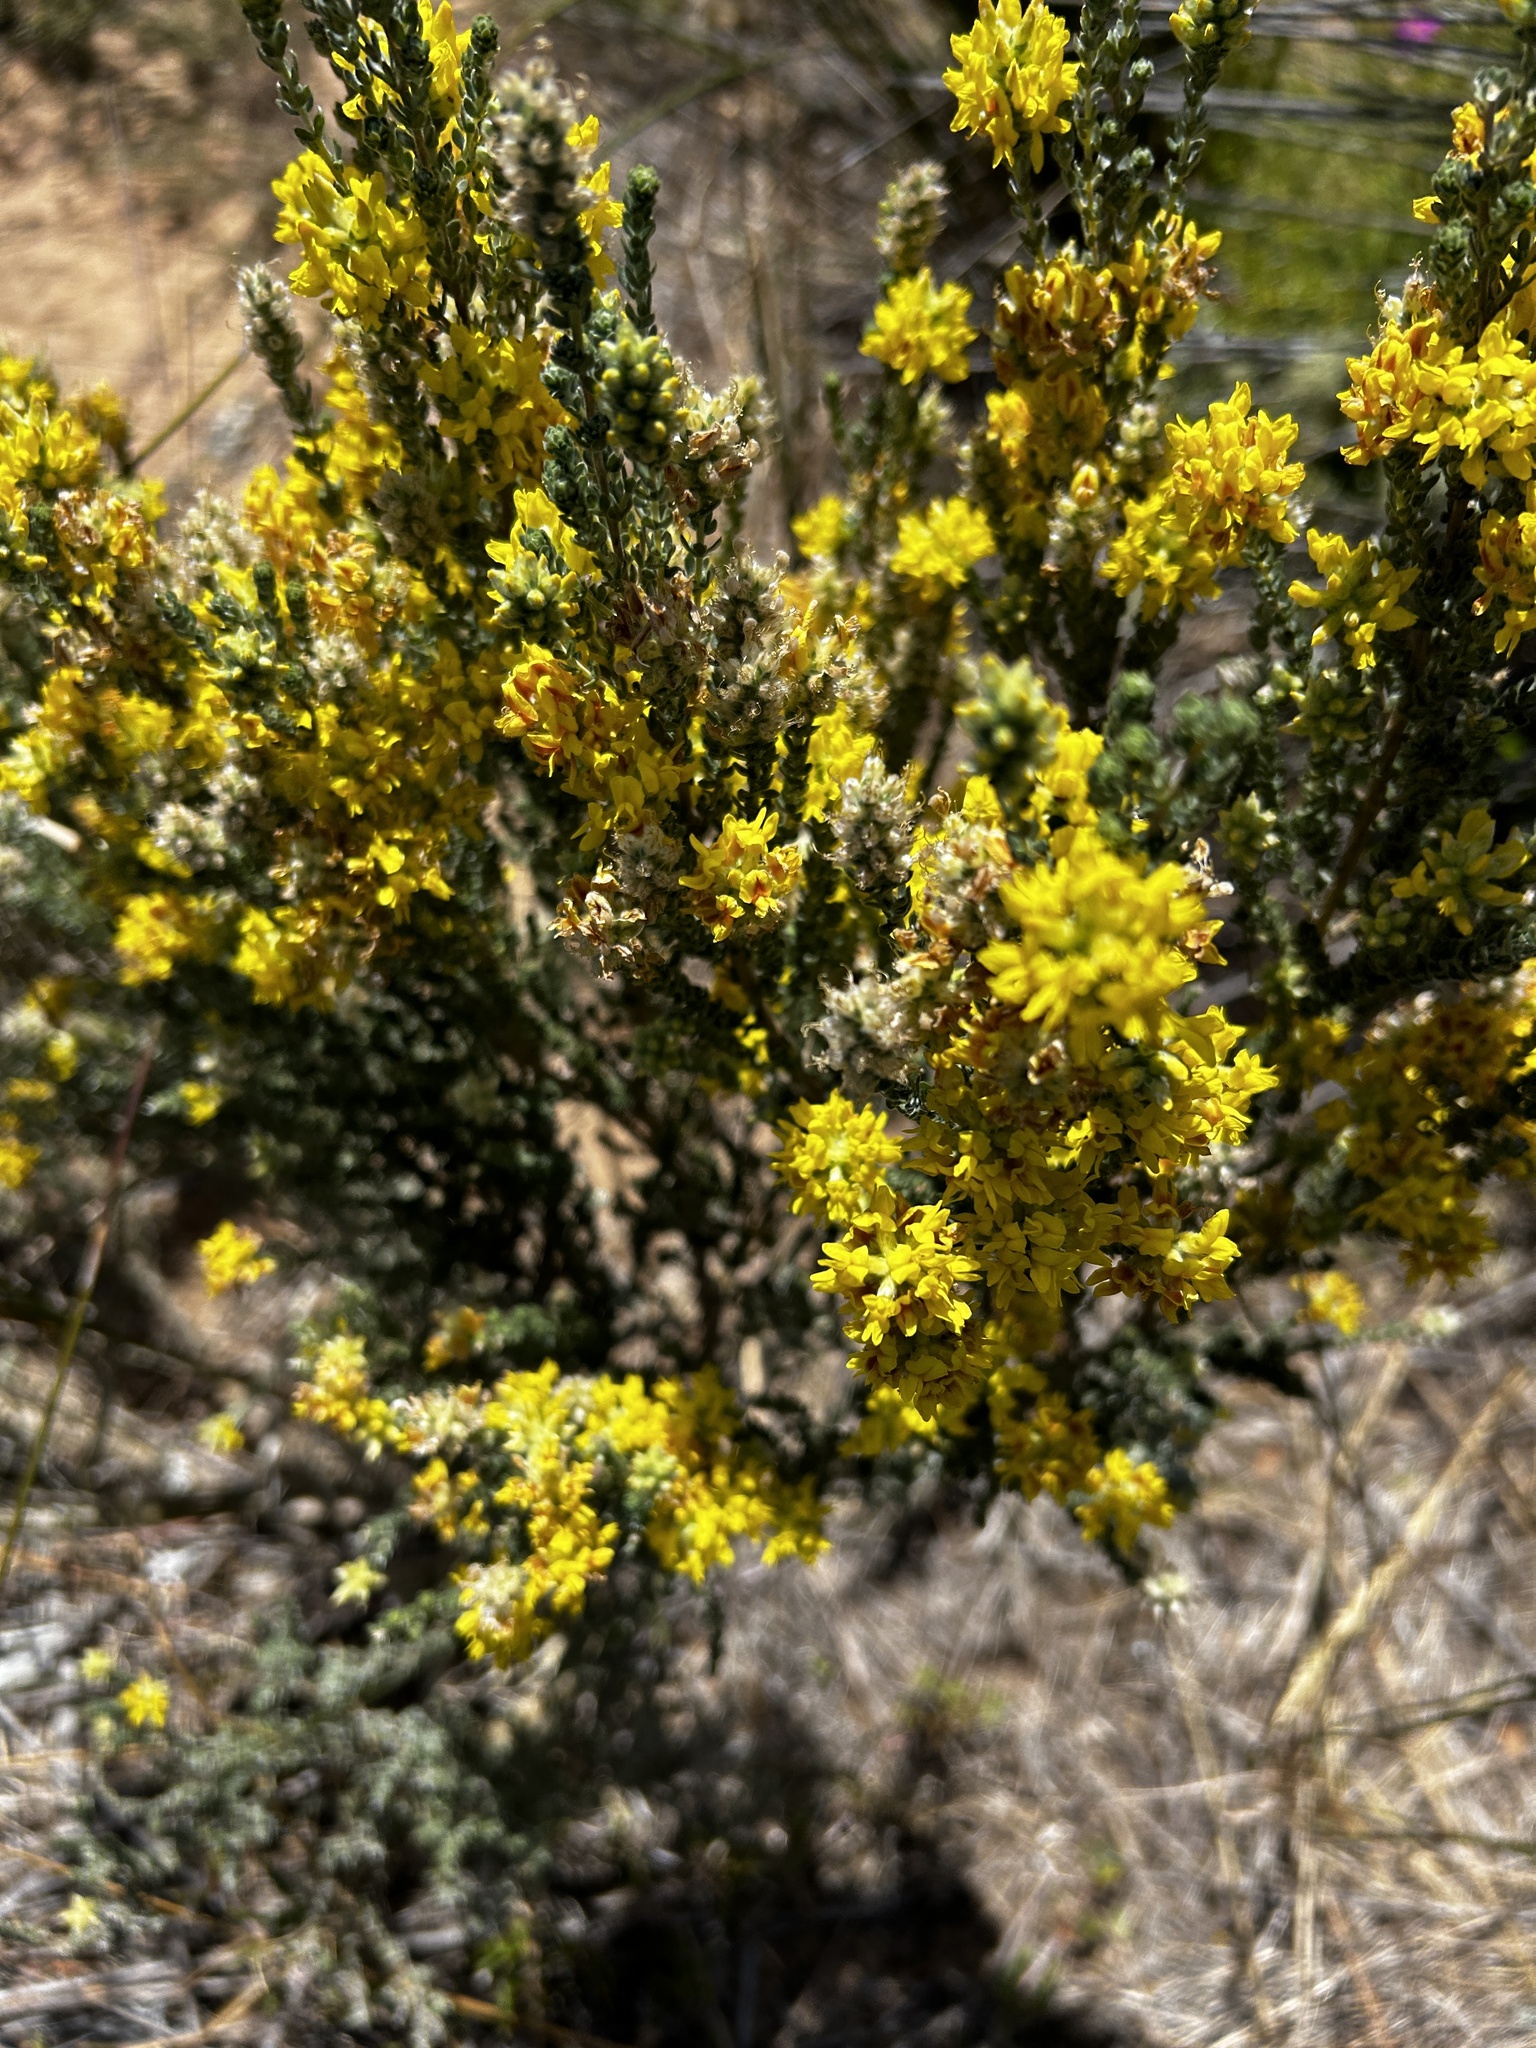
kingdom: Plantae
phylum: Tracheophyta
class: Magnoliopsida
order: Fabales
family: Fabaceae
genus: Aspalathus
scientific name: Aspalathus quinquefolia
